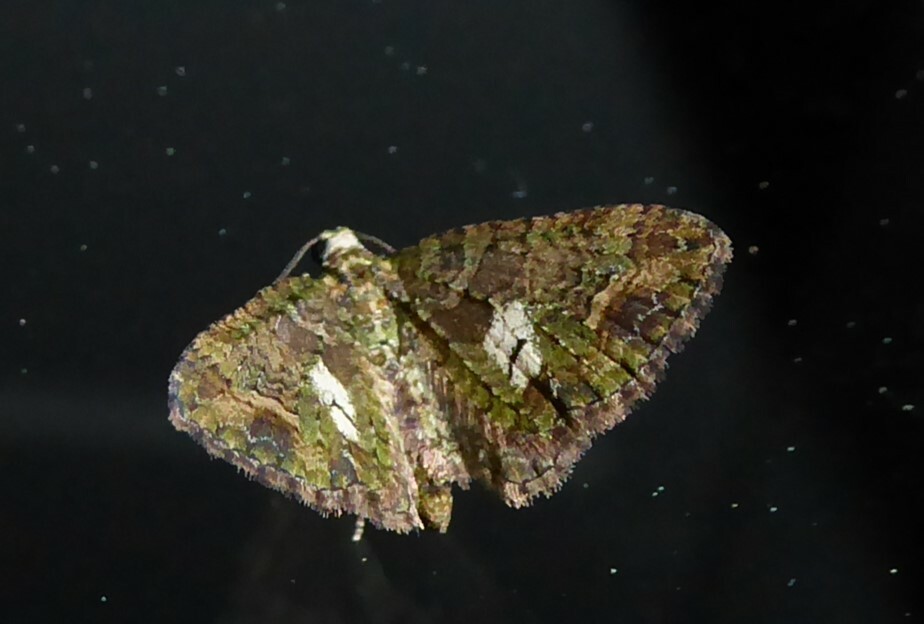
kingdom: Animalia
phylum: Arthropoda
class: Insecta
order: Lepidoptera
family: Geometridae
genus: Idaea
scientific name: Idaea mutanda
